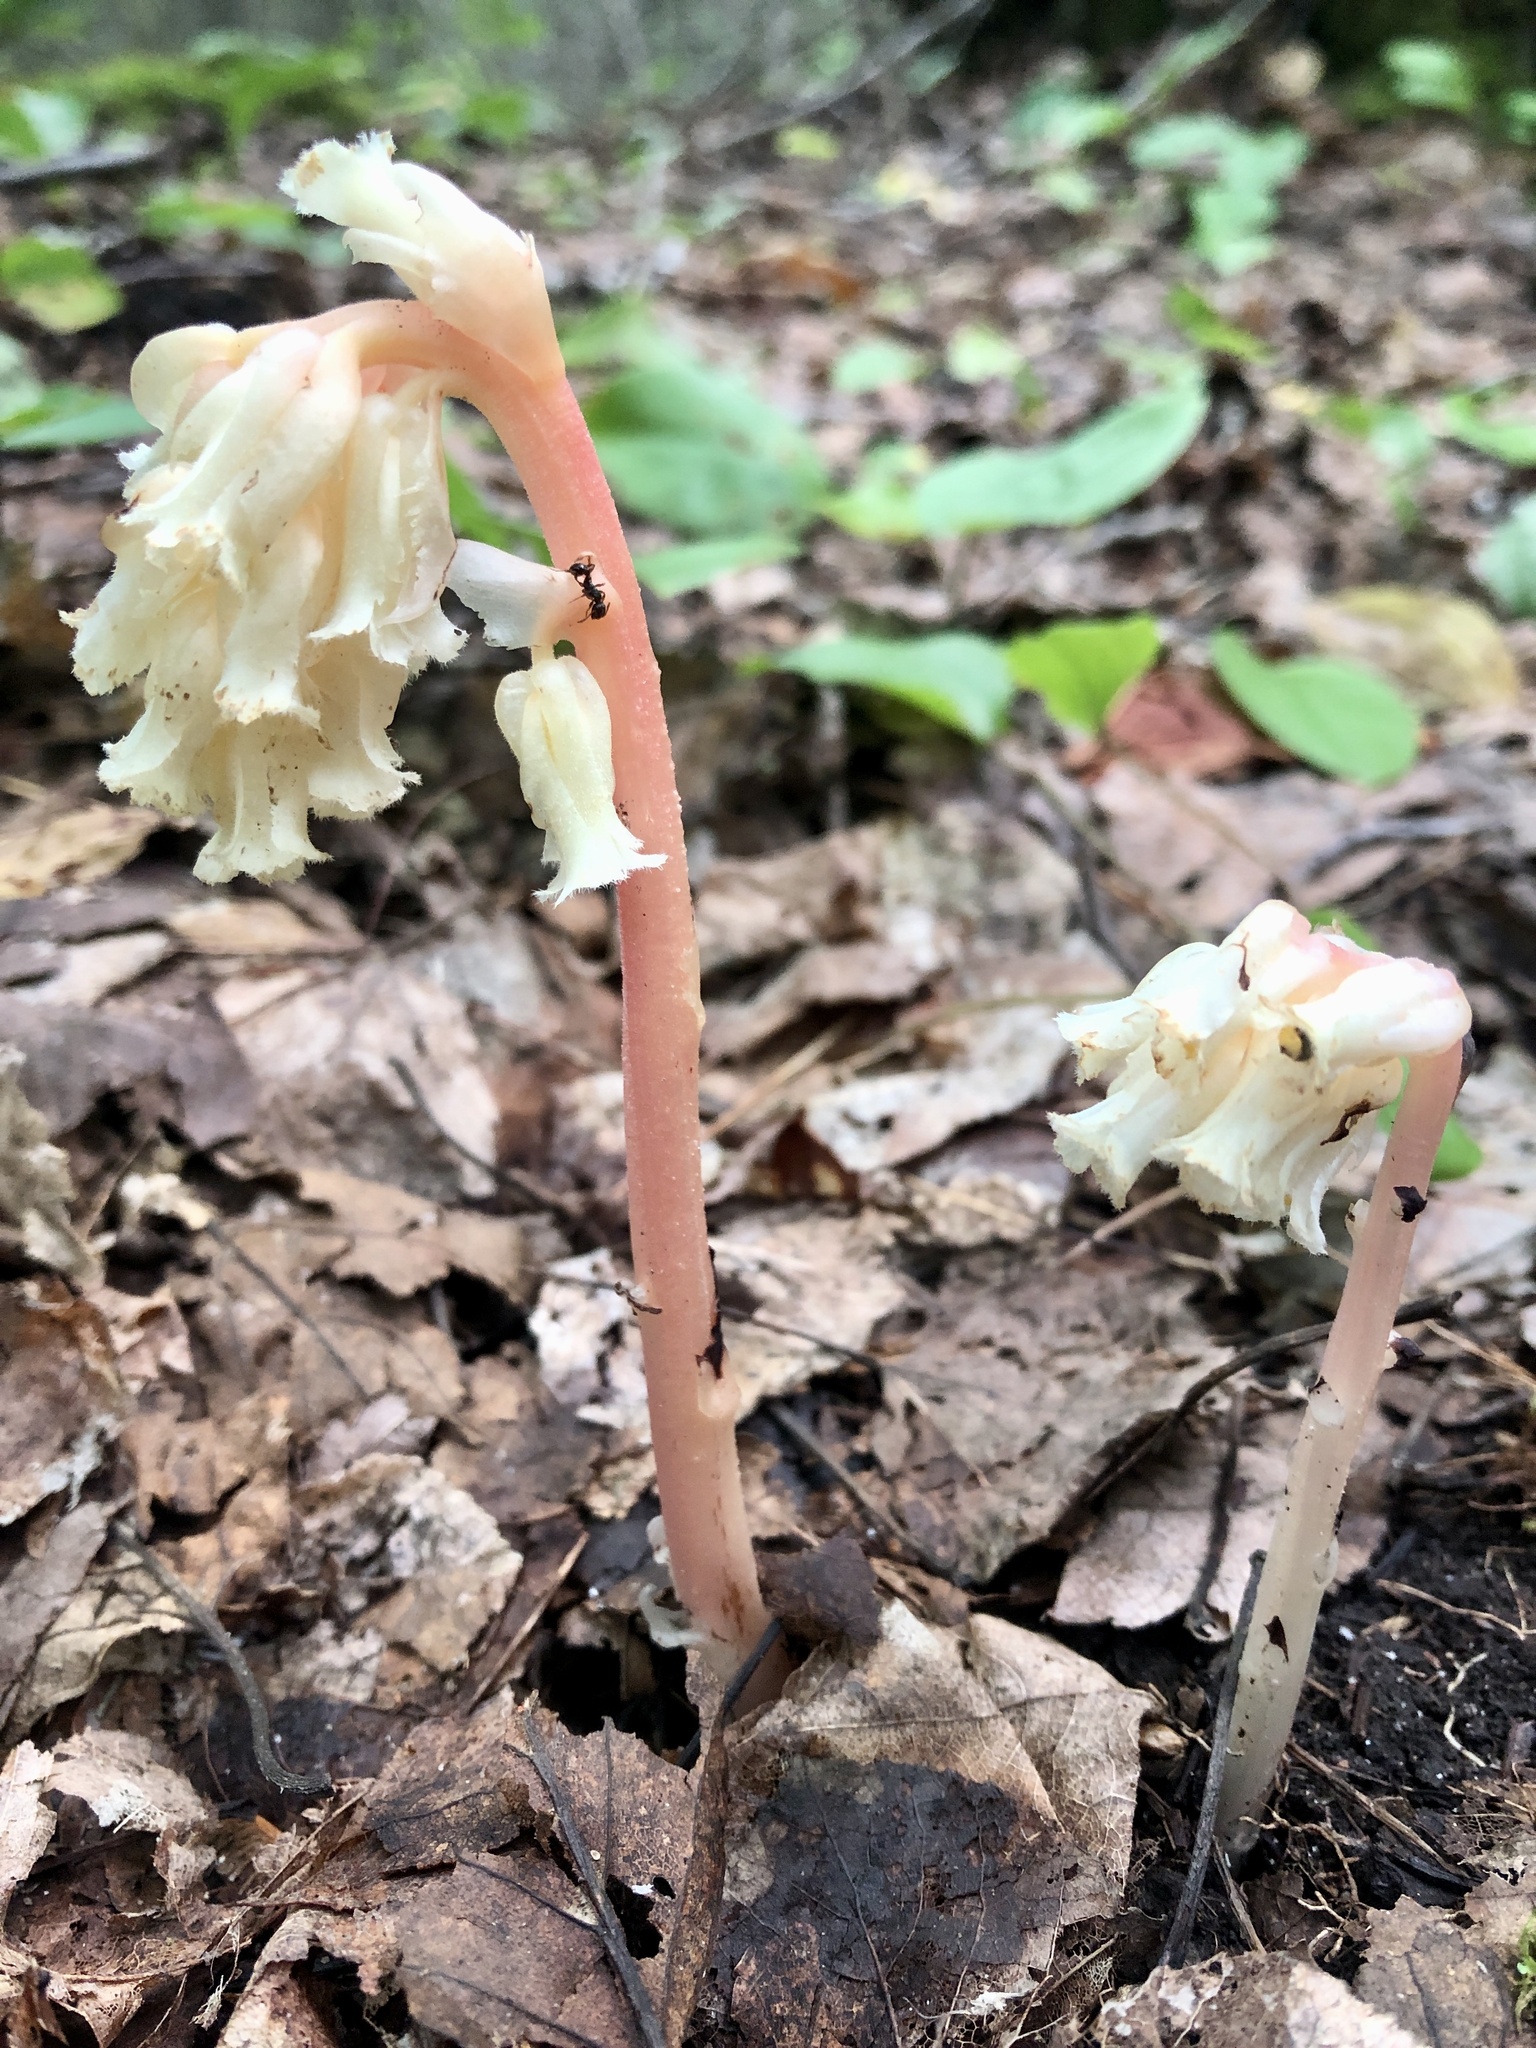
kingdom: Plantae
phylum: Tracheophyta
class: Magnoliopsida
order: Ericales
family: Ericaceae
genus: Hypopitys
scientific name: Hypopitys monotropa
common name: Yellow bird's-nest
